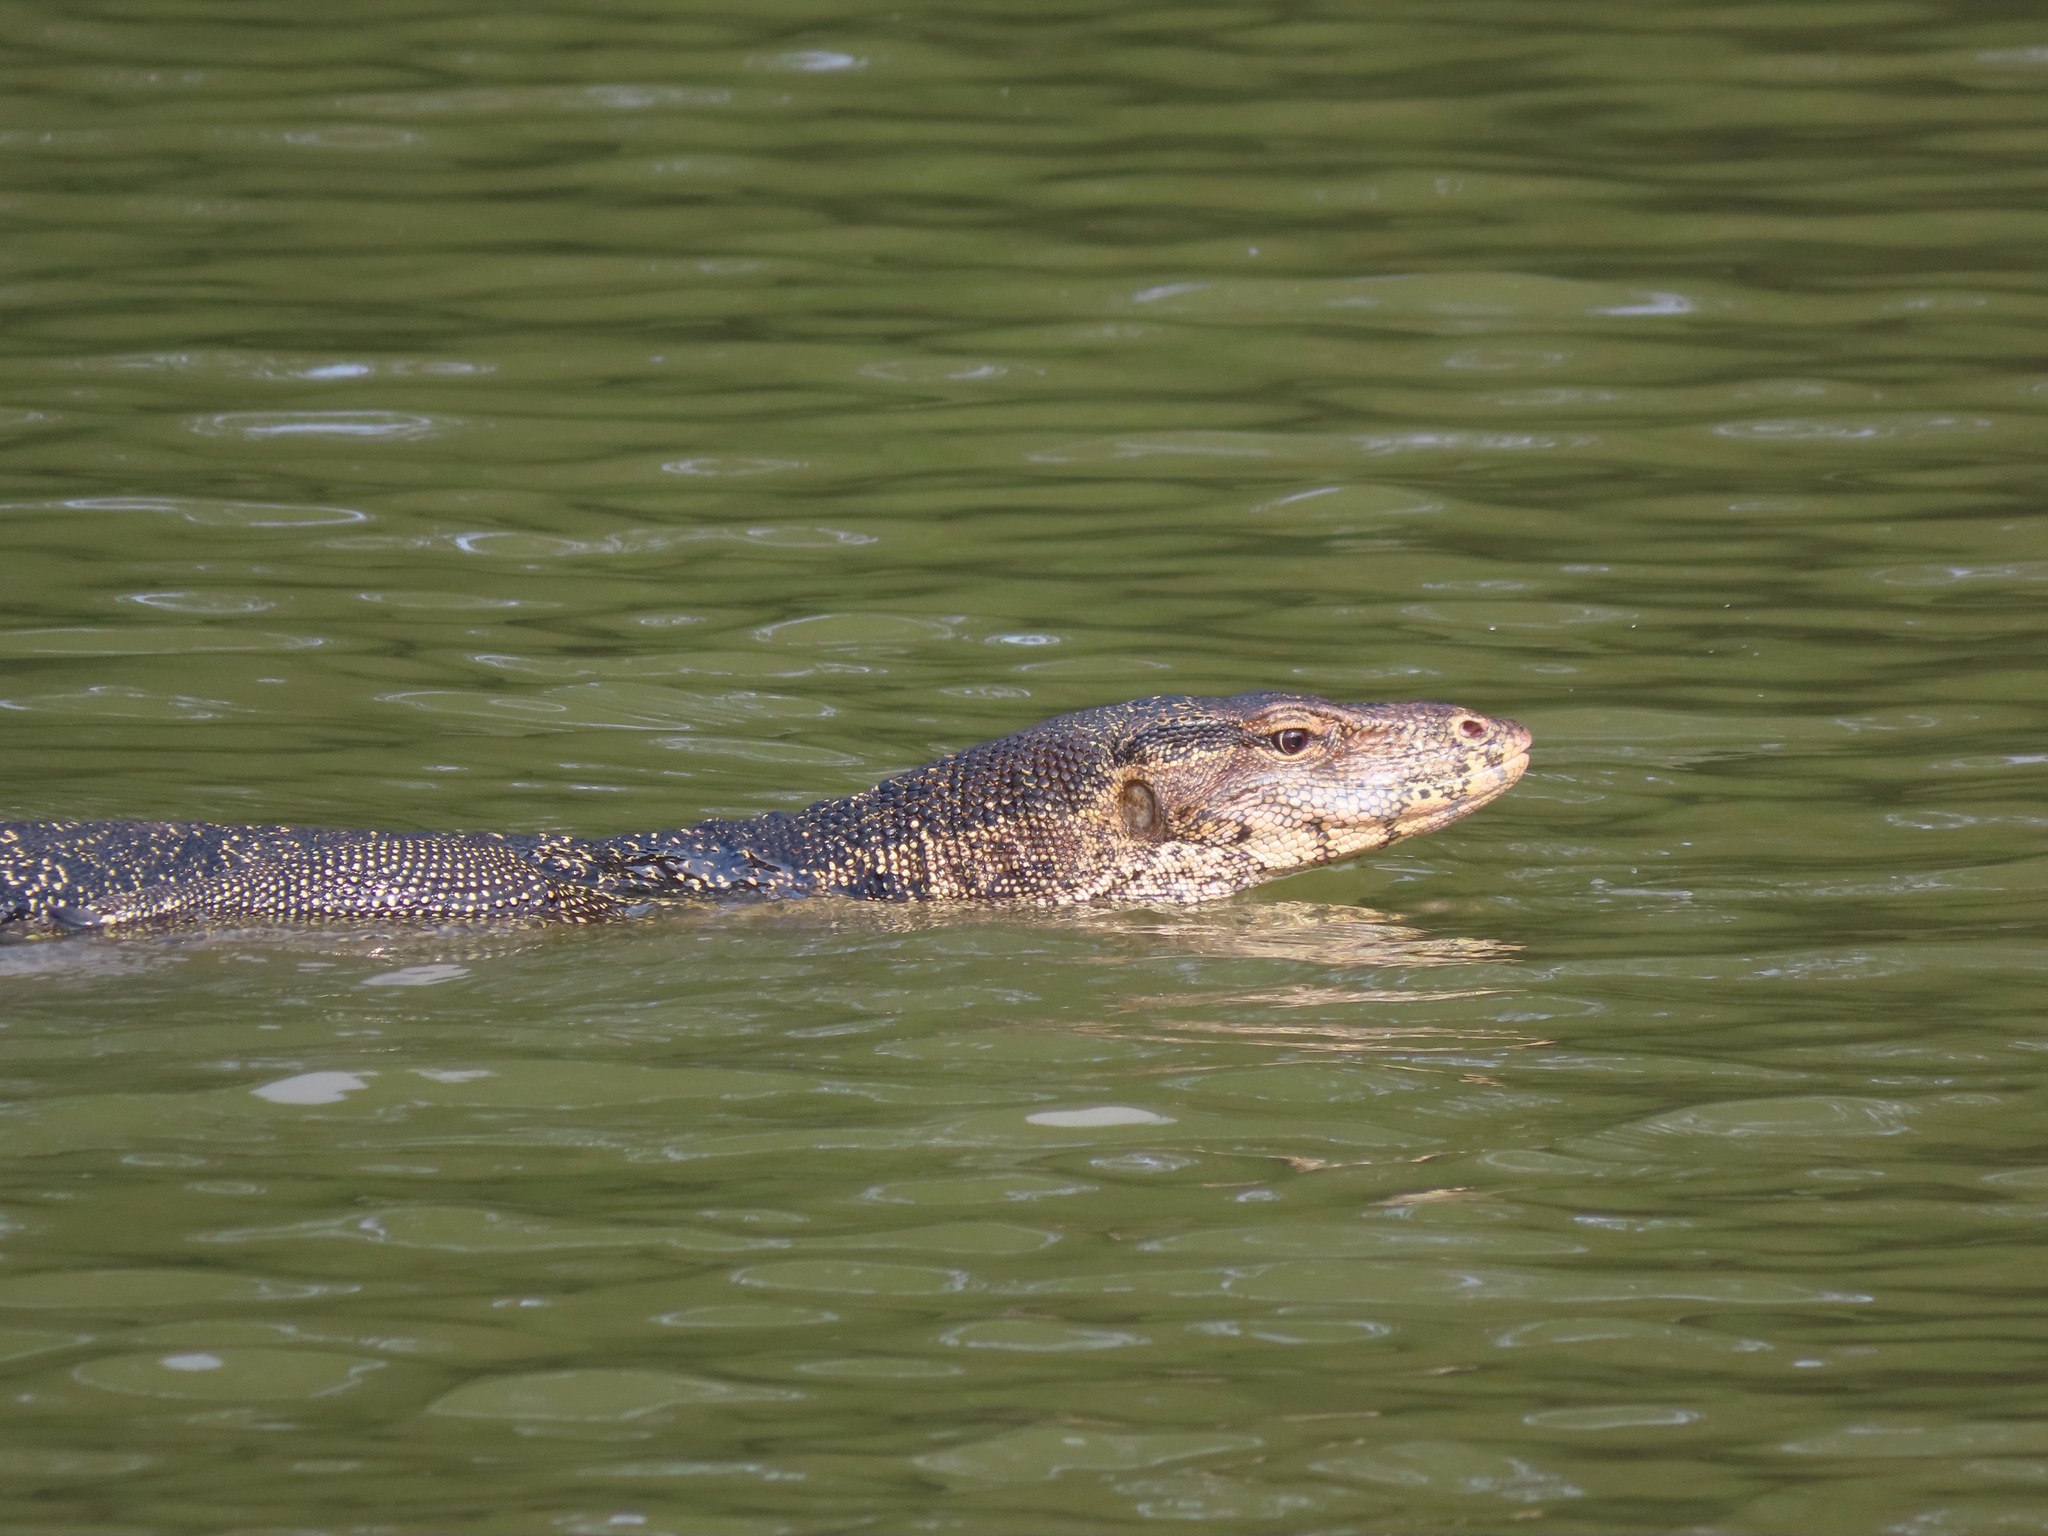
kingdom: Animalia
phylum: Chordata
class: Squamata
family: Varanidae
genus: Varanus
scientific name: Varanus salvator
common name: Common water monitor
